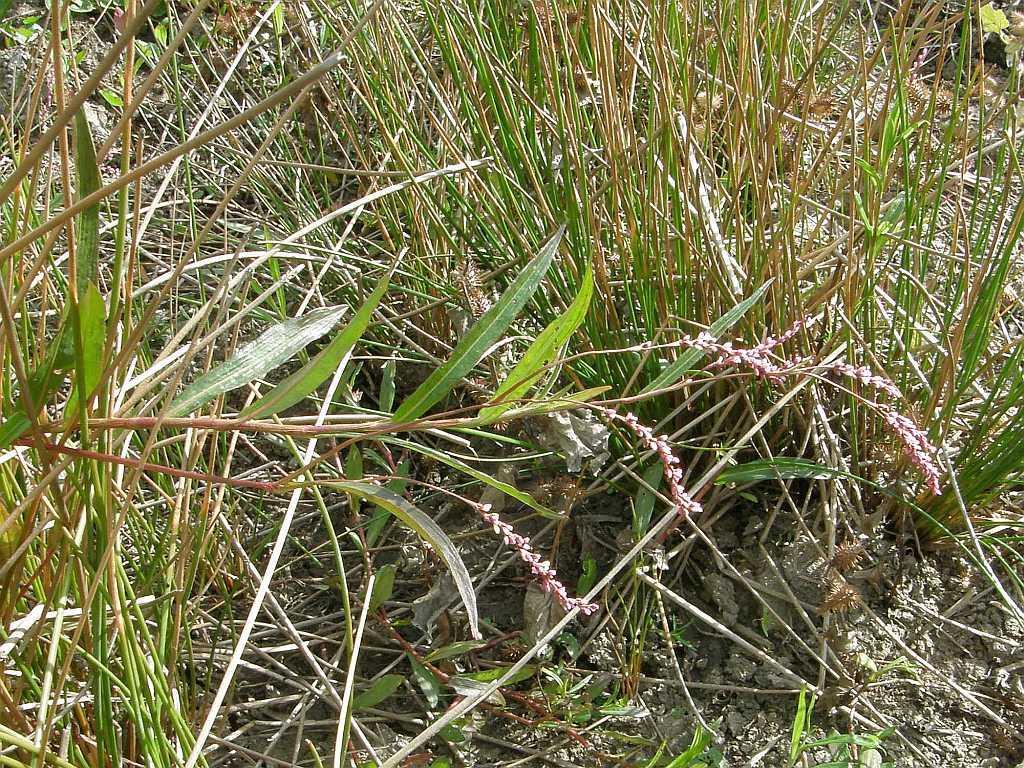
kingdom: Plantae
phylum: Tracheophyta
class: Magnoliopsida
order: Caryophyllales
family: Polygonaceae
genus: Persicaria
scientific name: Persicaria decipiens
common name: Willow-weed
